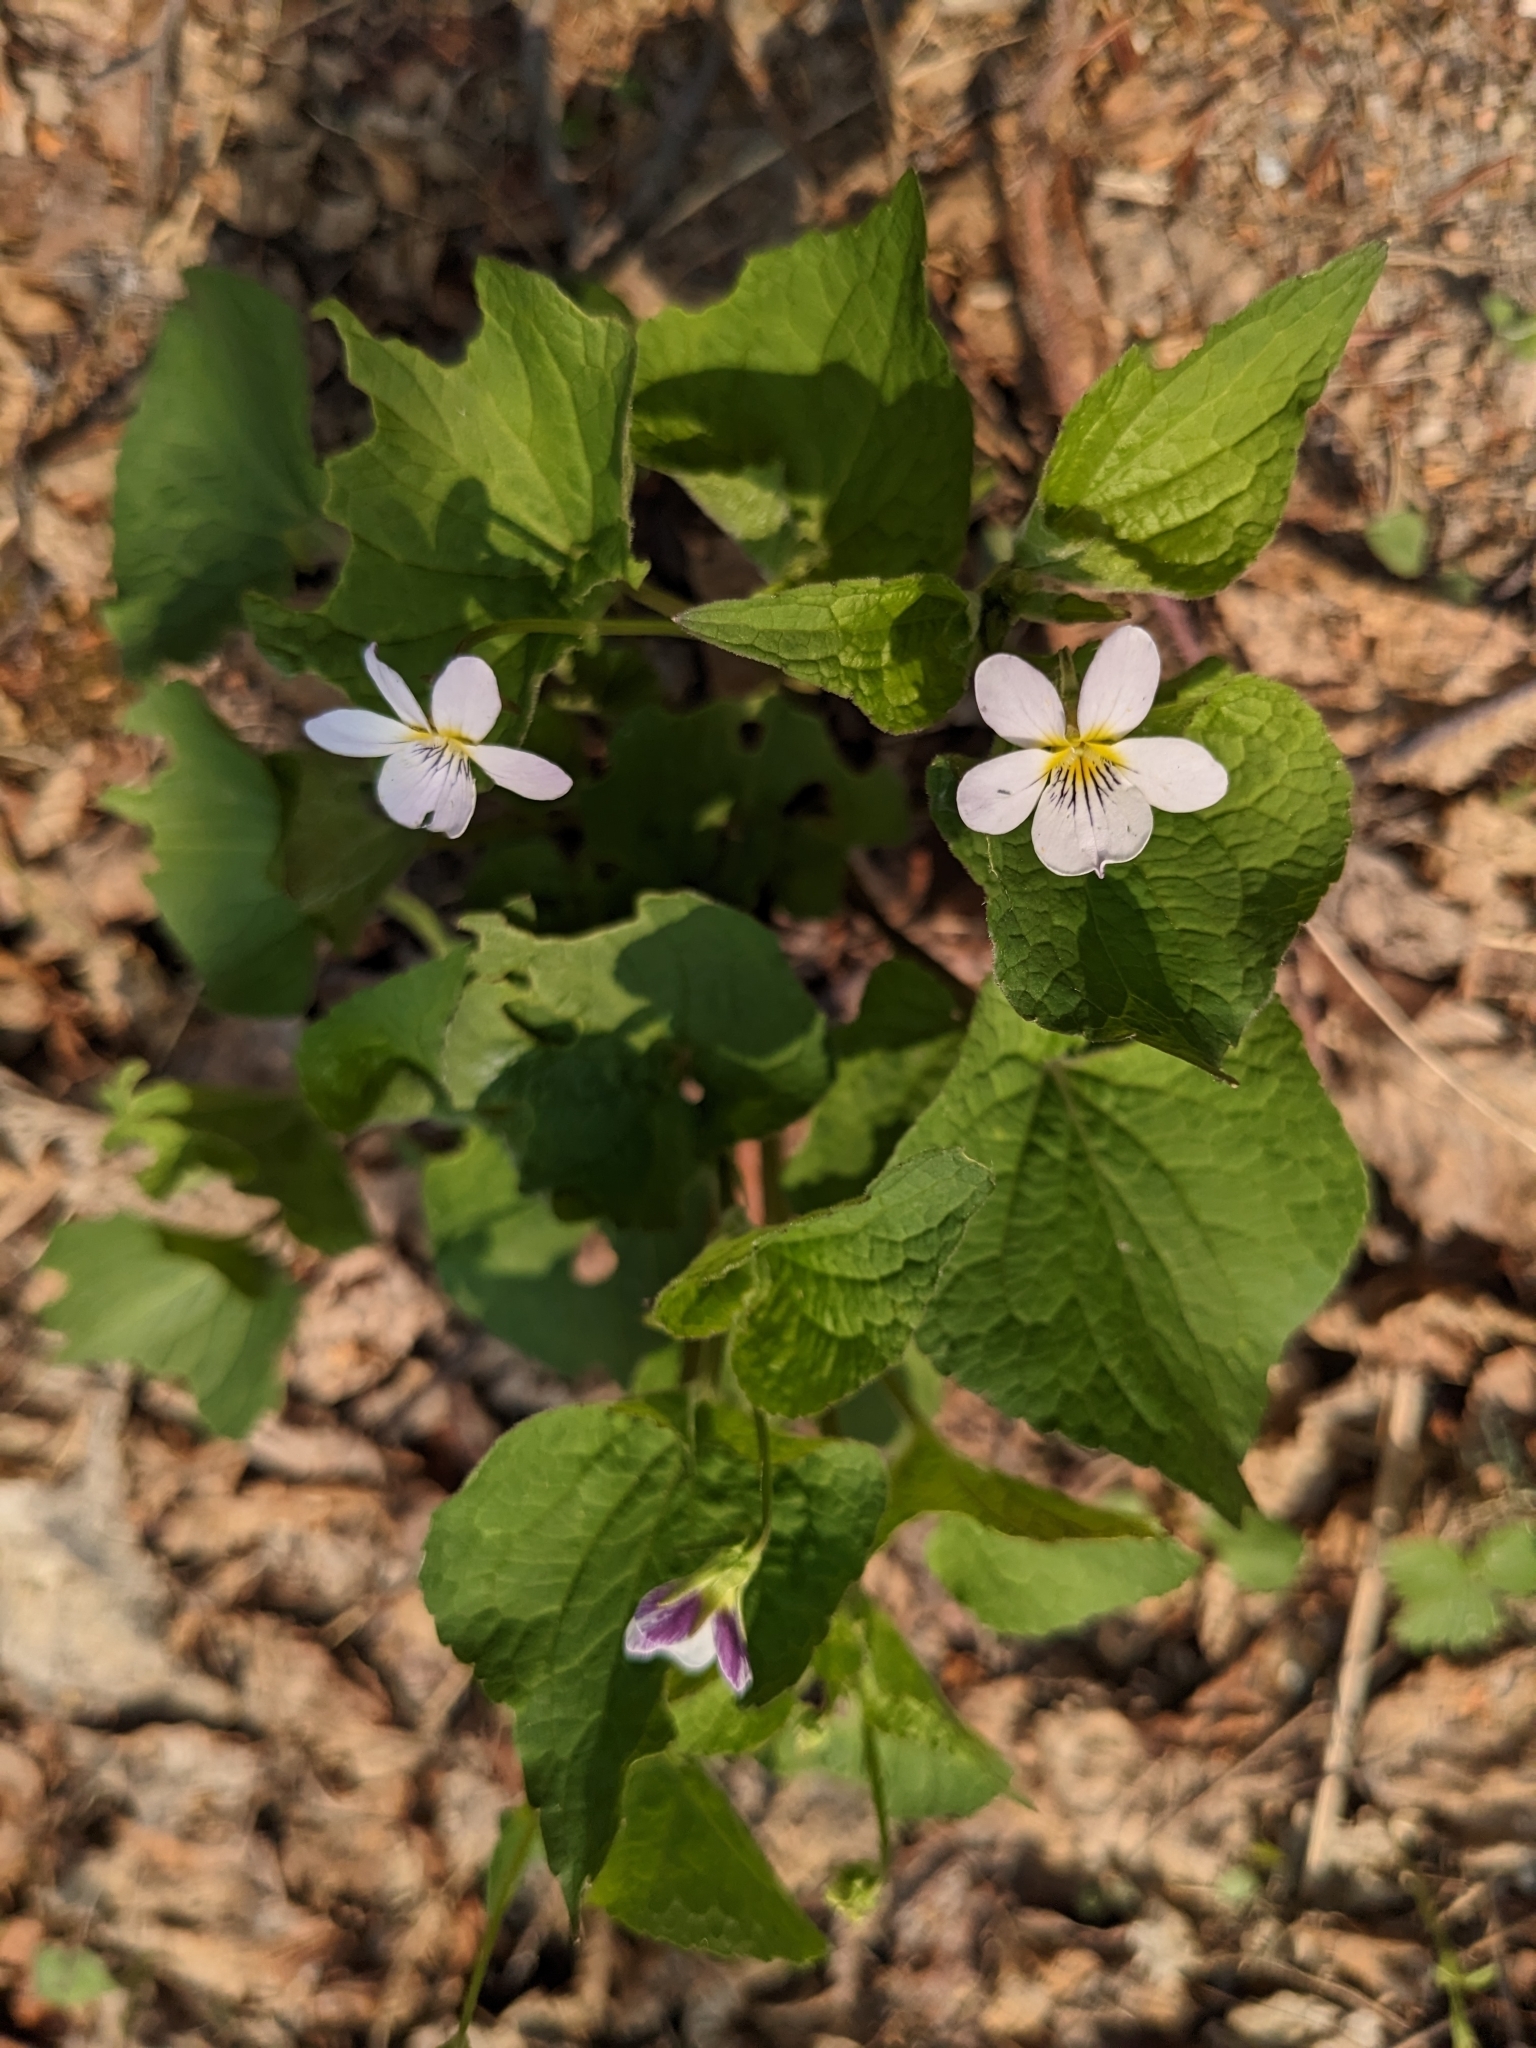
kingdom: Plantae
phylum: Tracheophyta
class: Magnoliopsida
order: Malpighiales
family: Violaceae
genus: Viola
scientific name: Viola canadensis
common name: Canada violet
